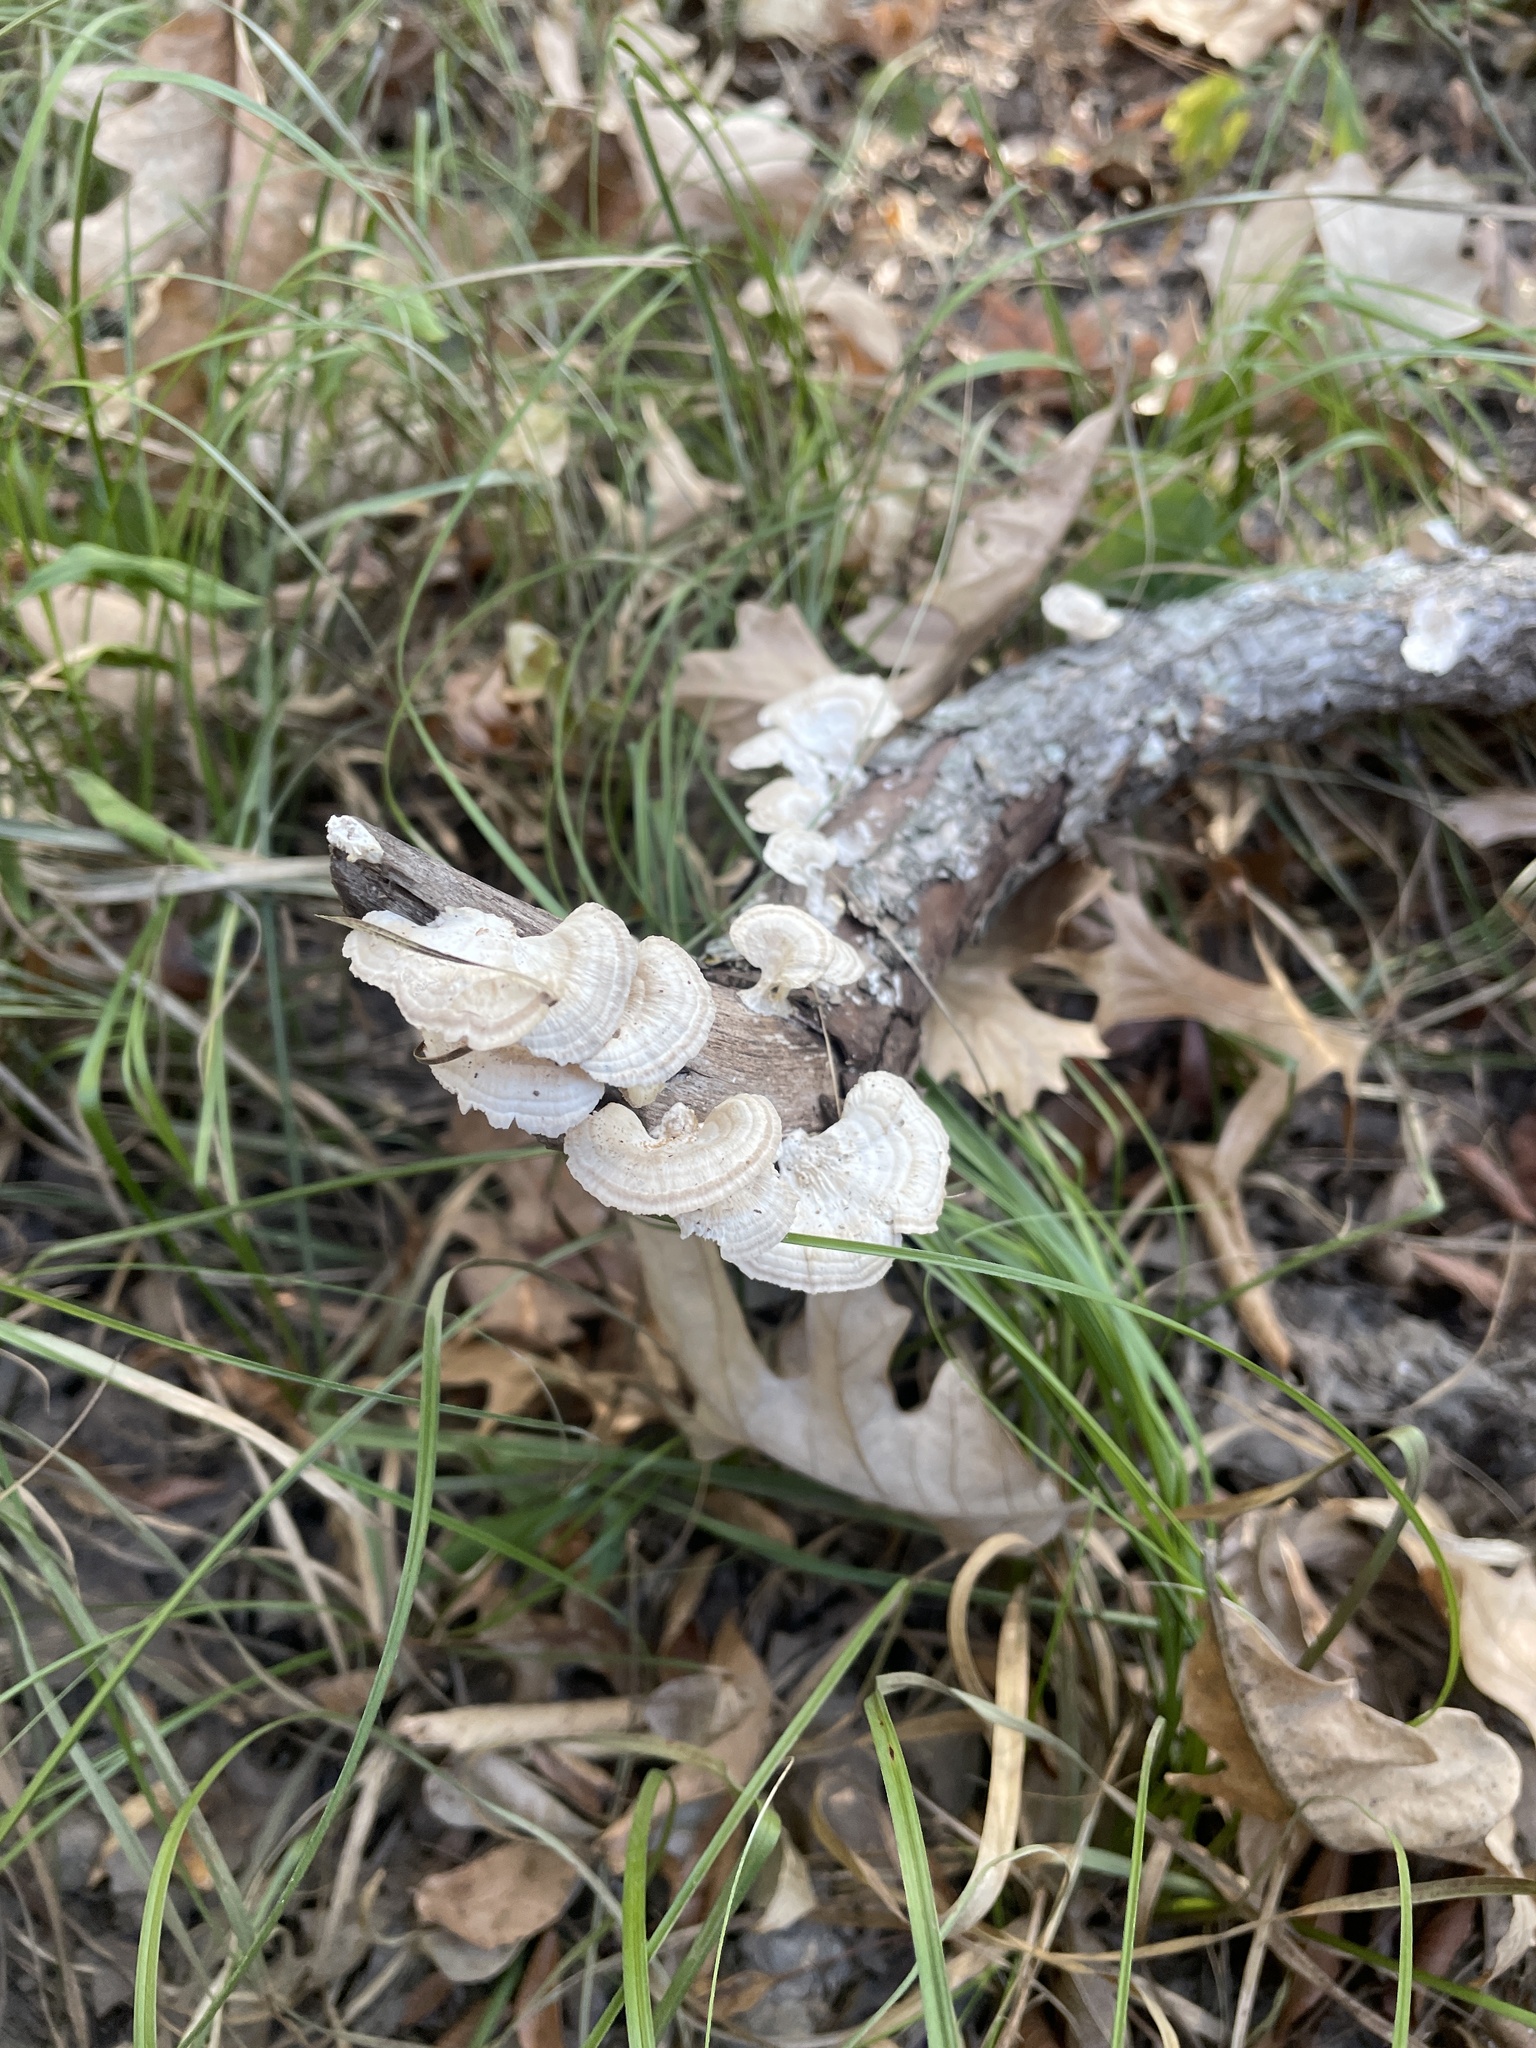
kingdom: Fungi
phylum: Basidiomycota
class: Agaricomycetes
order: Polyporales
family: Polyporaceae
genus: Poronidulus
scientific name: Poronidulus conchifer
